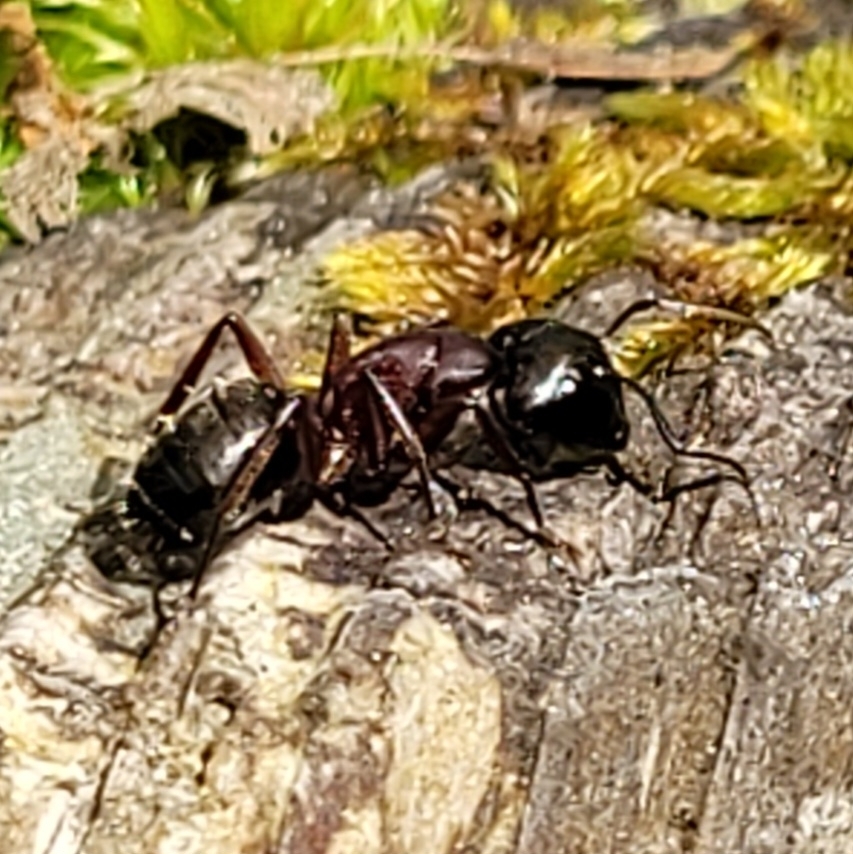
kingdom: Animalia
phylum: Arthropoda
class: Insecta
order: Hymenoptera
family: Formicidae
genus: Camponotus
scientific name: Camponotus herculeanus
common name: Hercules ant
